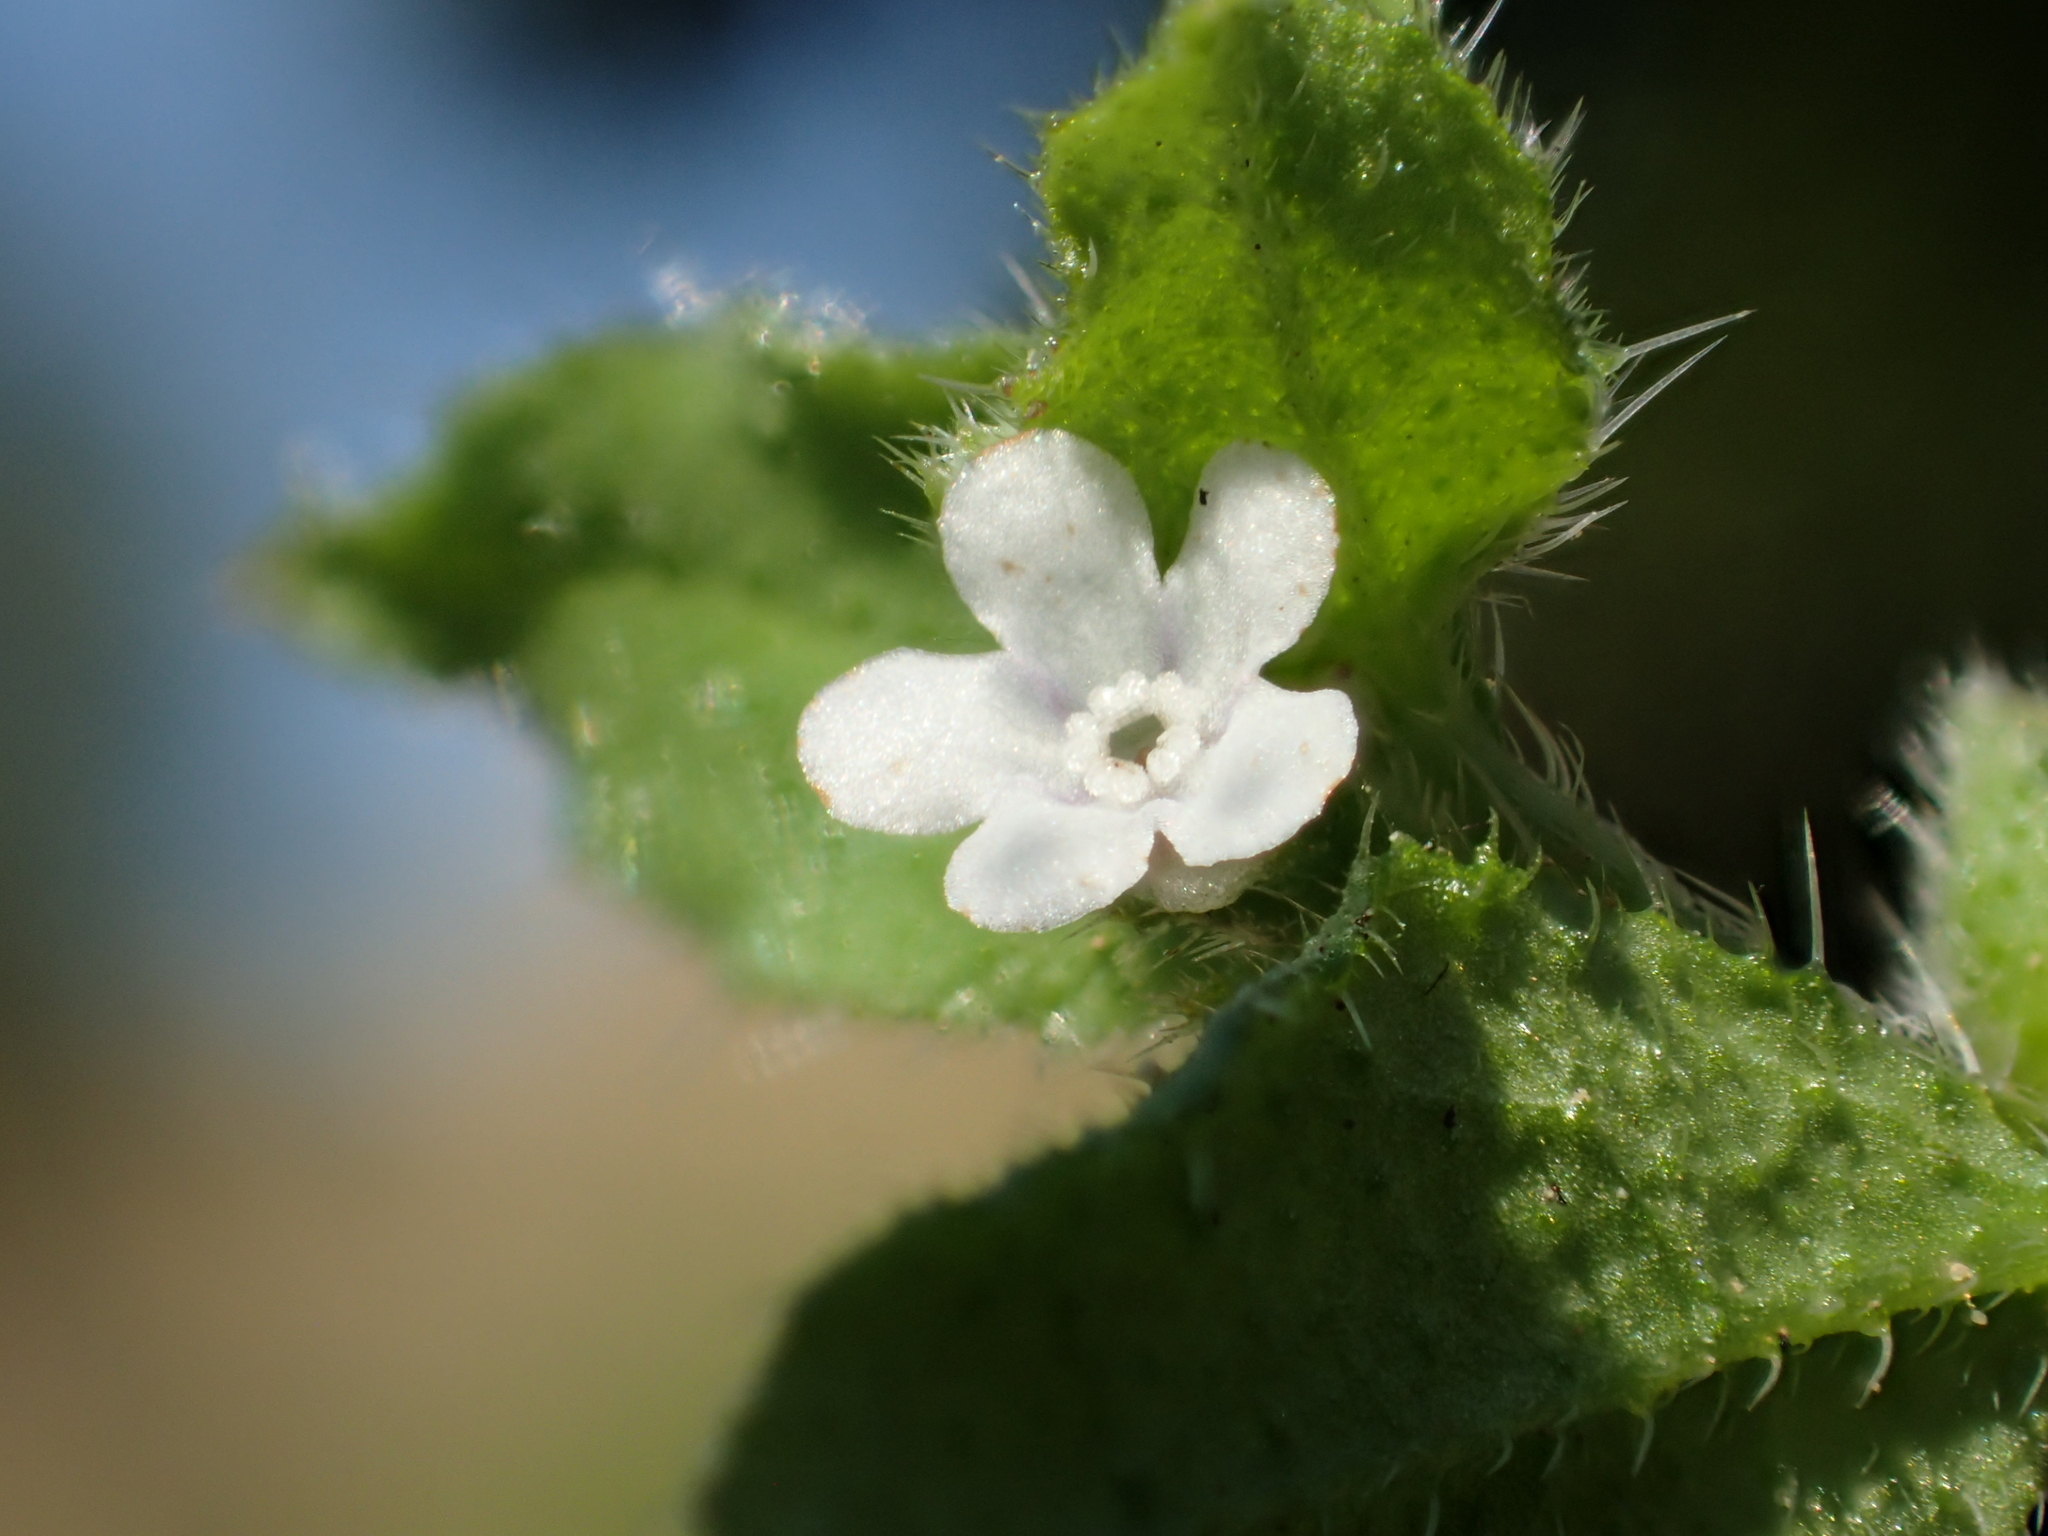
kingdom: Plantae
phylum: Tracheophyta
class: Magnoliopsida
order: Boraginales
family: Boraginaceae
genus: Bothriospermum
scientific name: Bothriospermum zeylanicum
